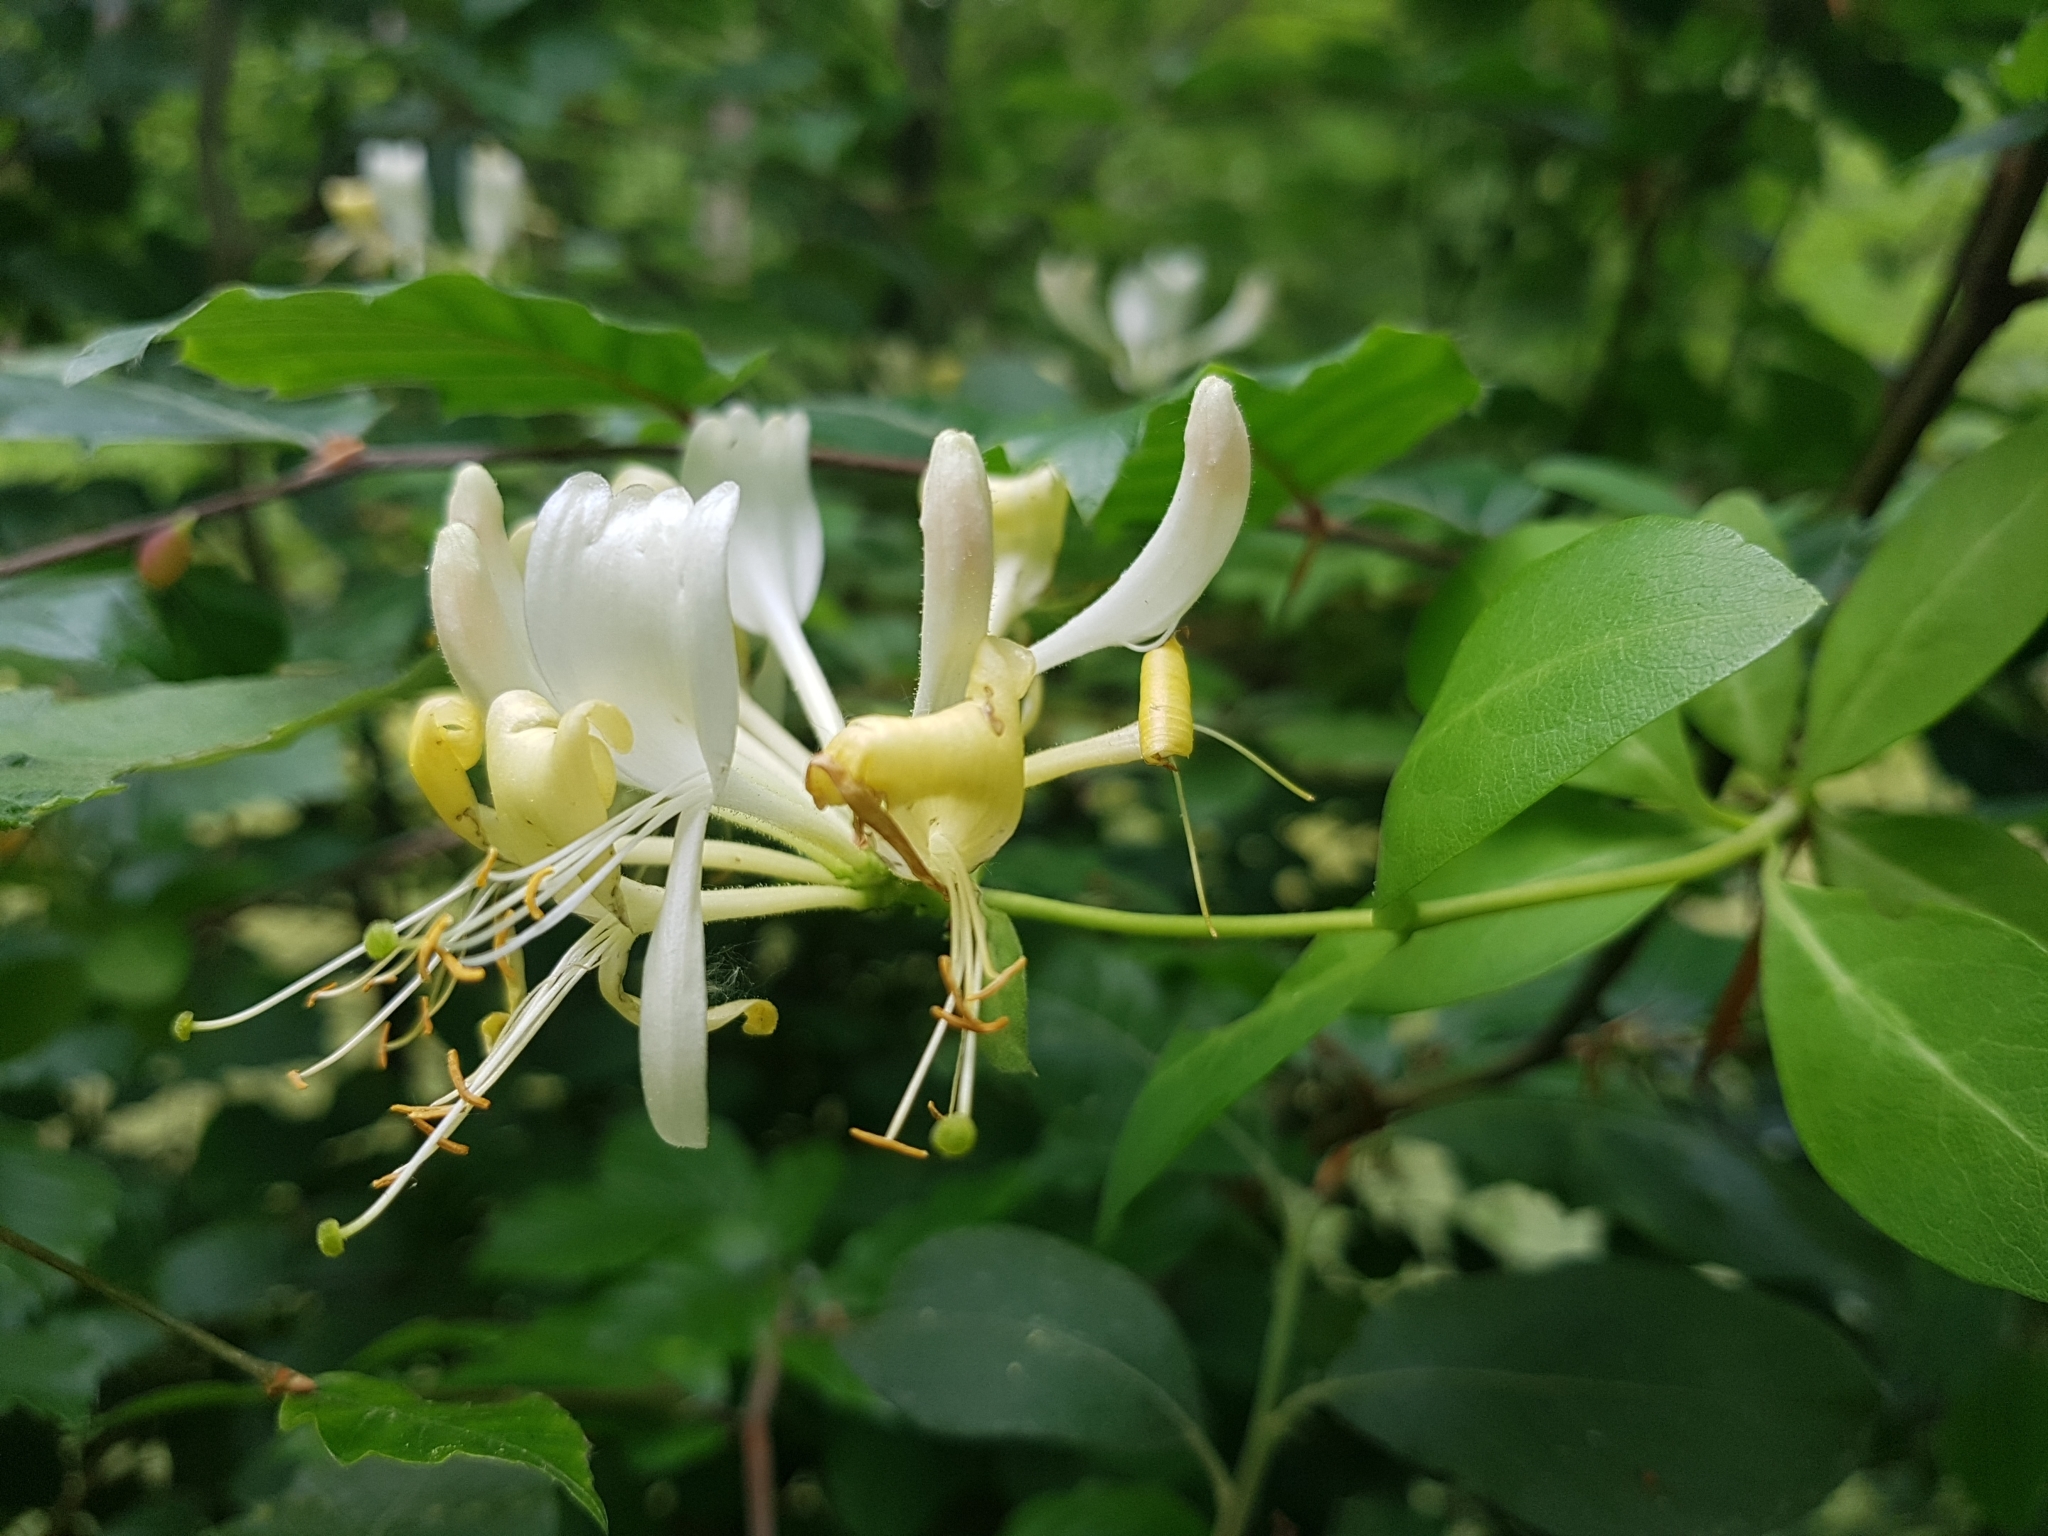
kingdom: Plantae
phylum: Tracheophyta
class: Magnoliopsida
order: Dipsacales
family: Caprifoliaceae
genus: Lonicera
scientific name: Lonicera periclymenum
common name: European honeysuckle
